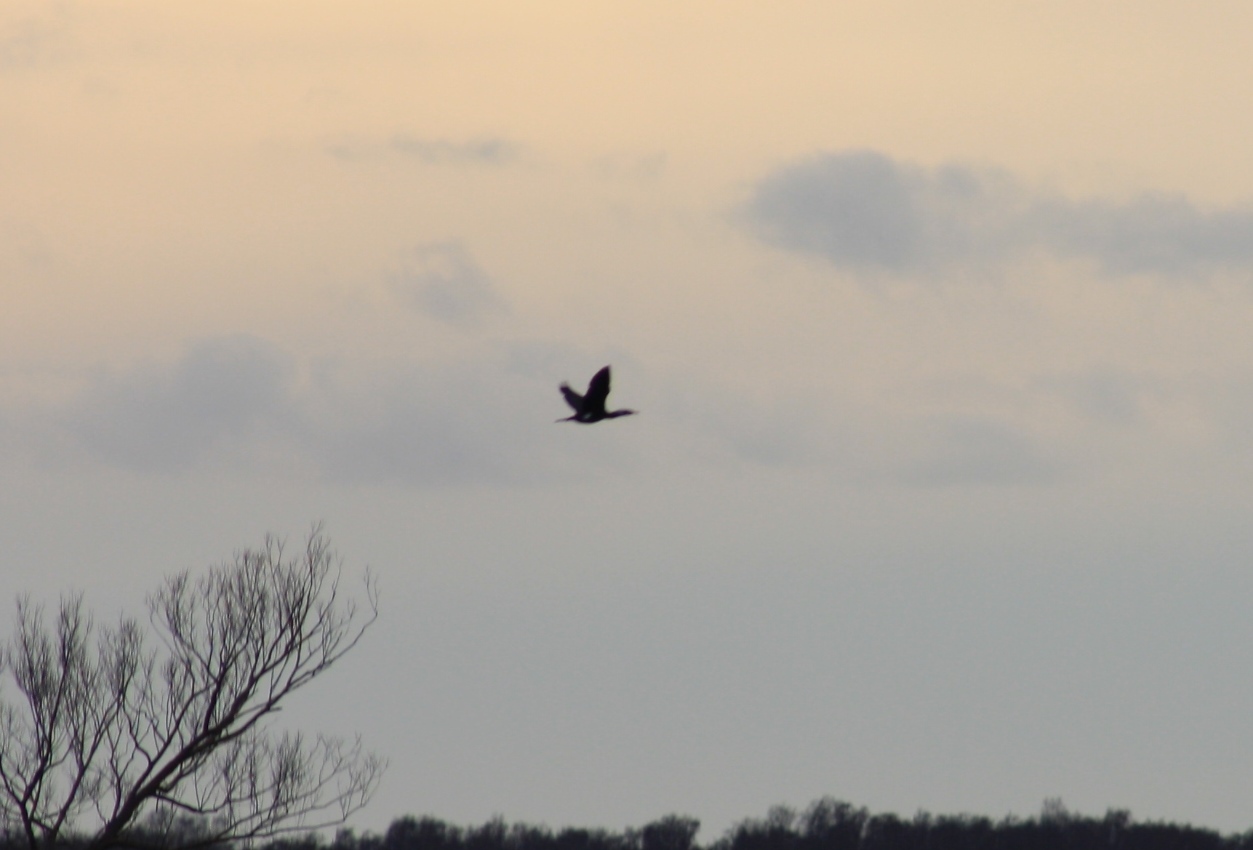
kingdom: Animalia
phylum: Chordata
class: Aves
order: Suliformes
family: Phalacrocoracidae
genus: Phalacrocorax
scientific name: Phalacrocorax carbo
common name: Great cormorant
